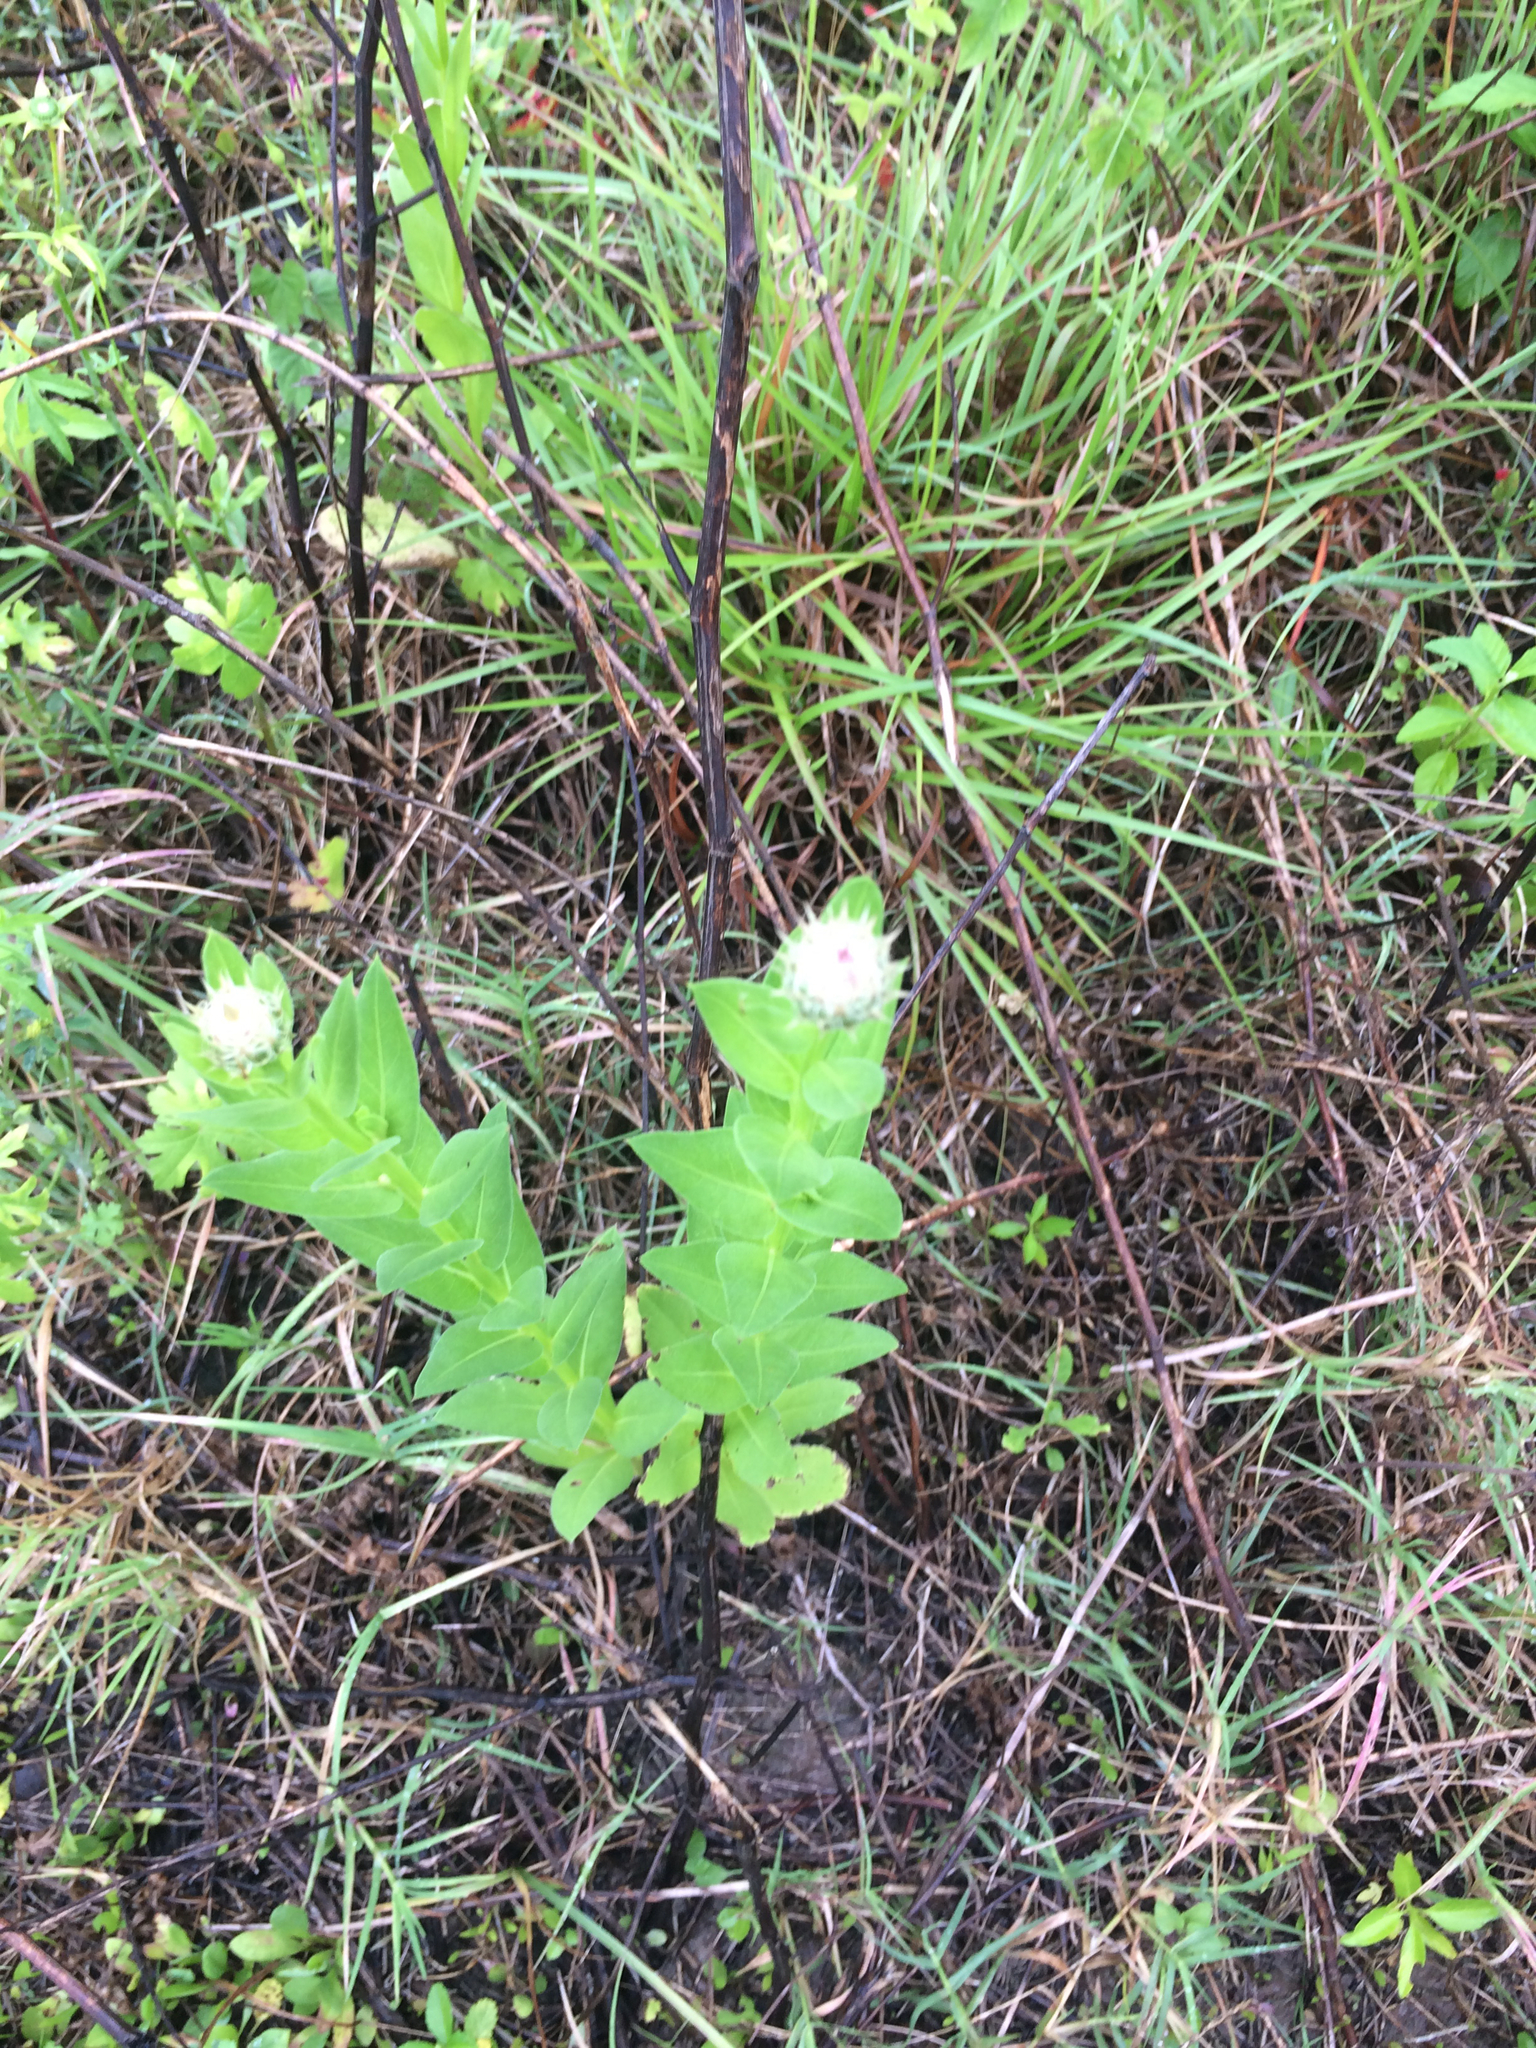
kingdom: Plantae
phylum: Tracheophyta
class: Magnoliopsida
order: Asterales
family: Asteraceae
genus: Plectocephalus
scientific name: Plectocephalus americanus
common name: American basket-flower
